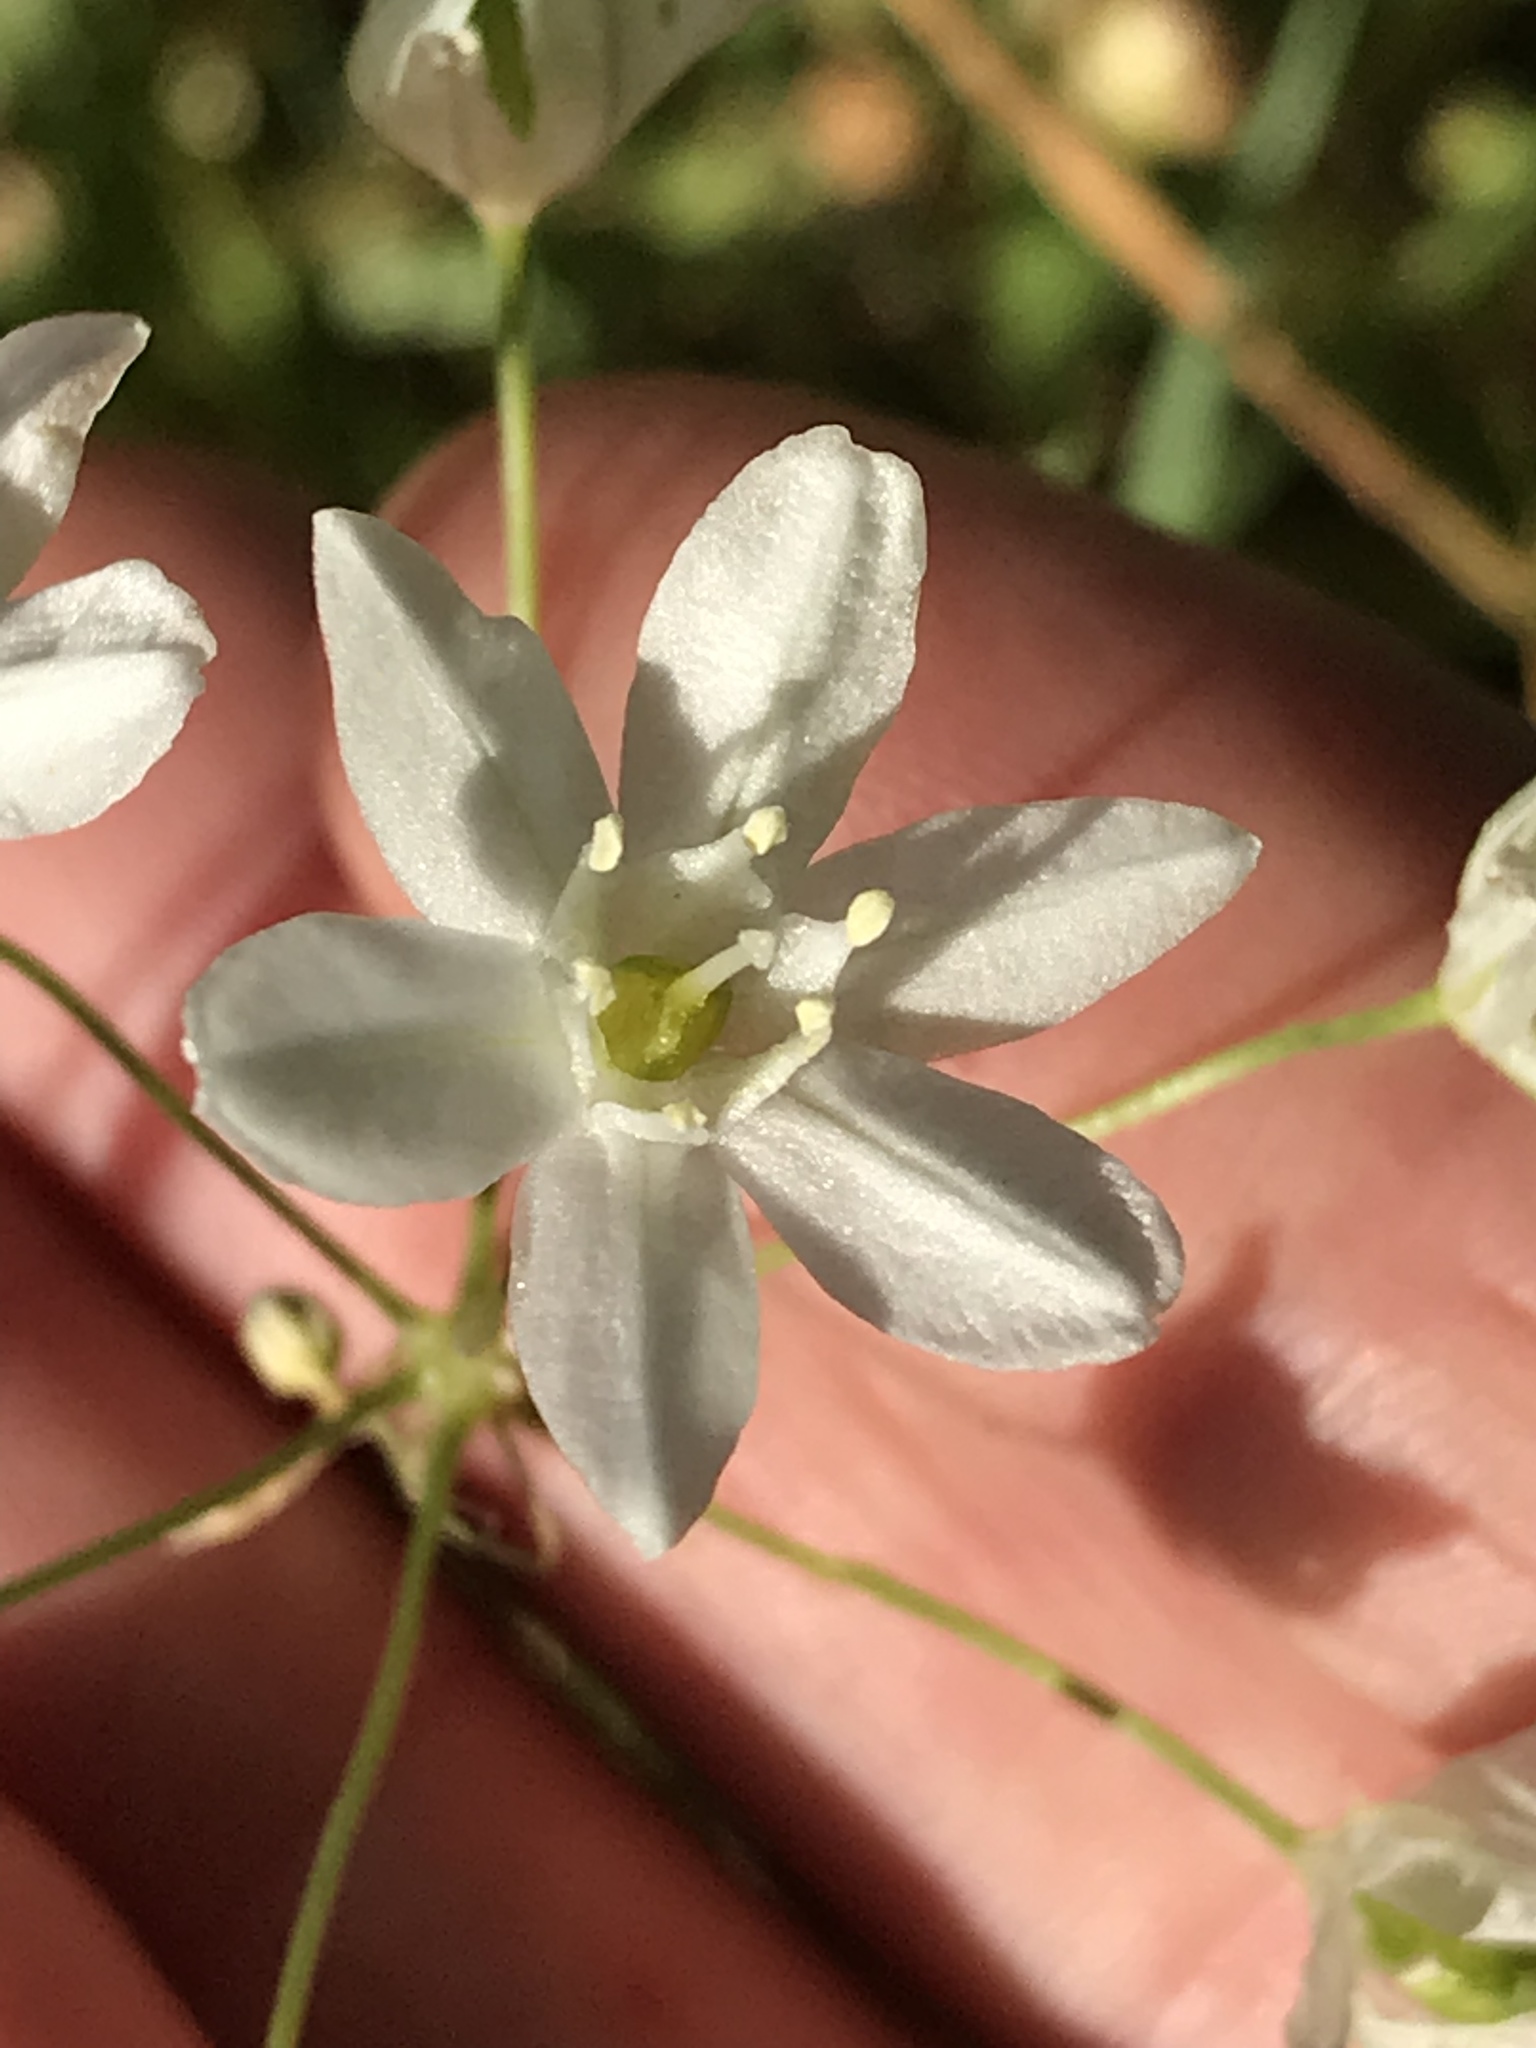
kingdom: Plantae
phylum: Tracheophyta
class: Liliopsida
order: Asparagales
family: Asparagaceae
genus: Triteleia
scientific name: Triteleia hyacinthina
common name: White brodiaea
